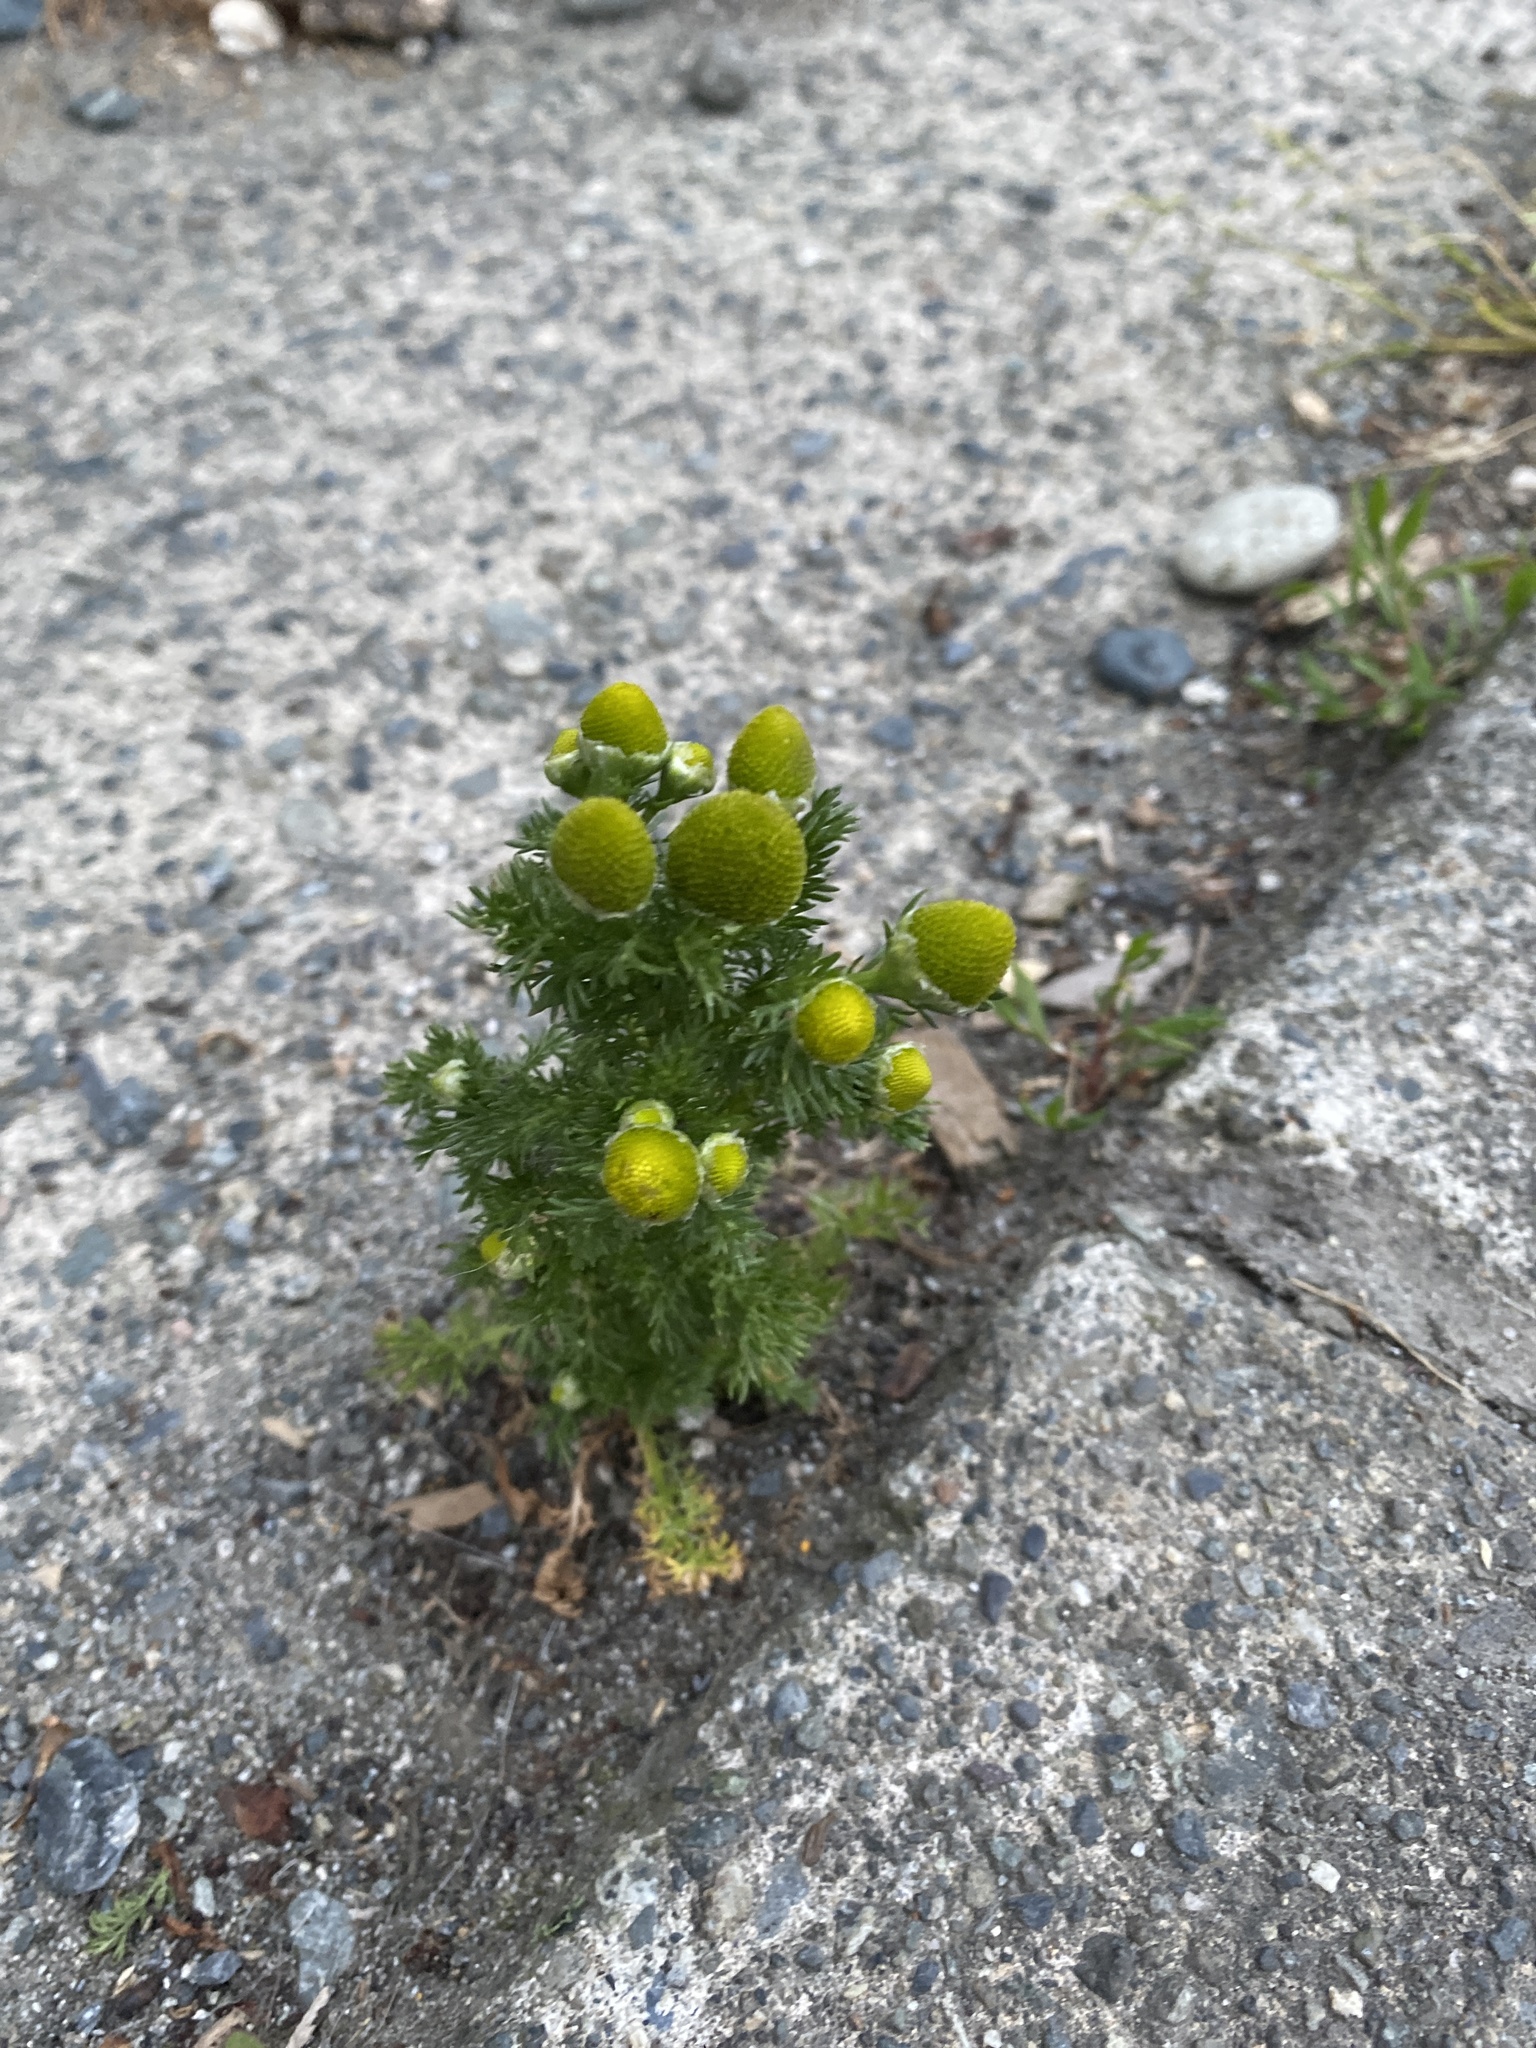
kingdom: Plantae
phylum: Tracheophyta
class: Magnoliopsida
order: Asterales
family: Asteraceae
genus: Matricaria
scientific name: Matricaria discoidea
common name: Disc mayweed
